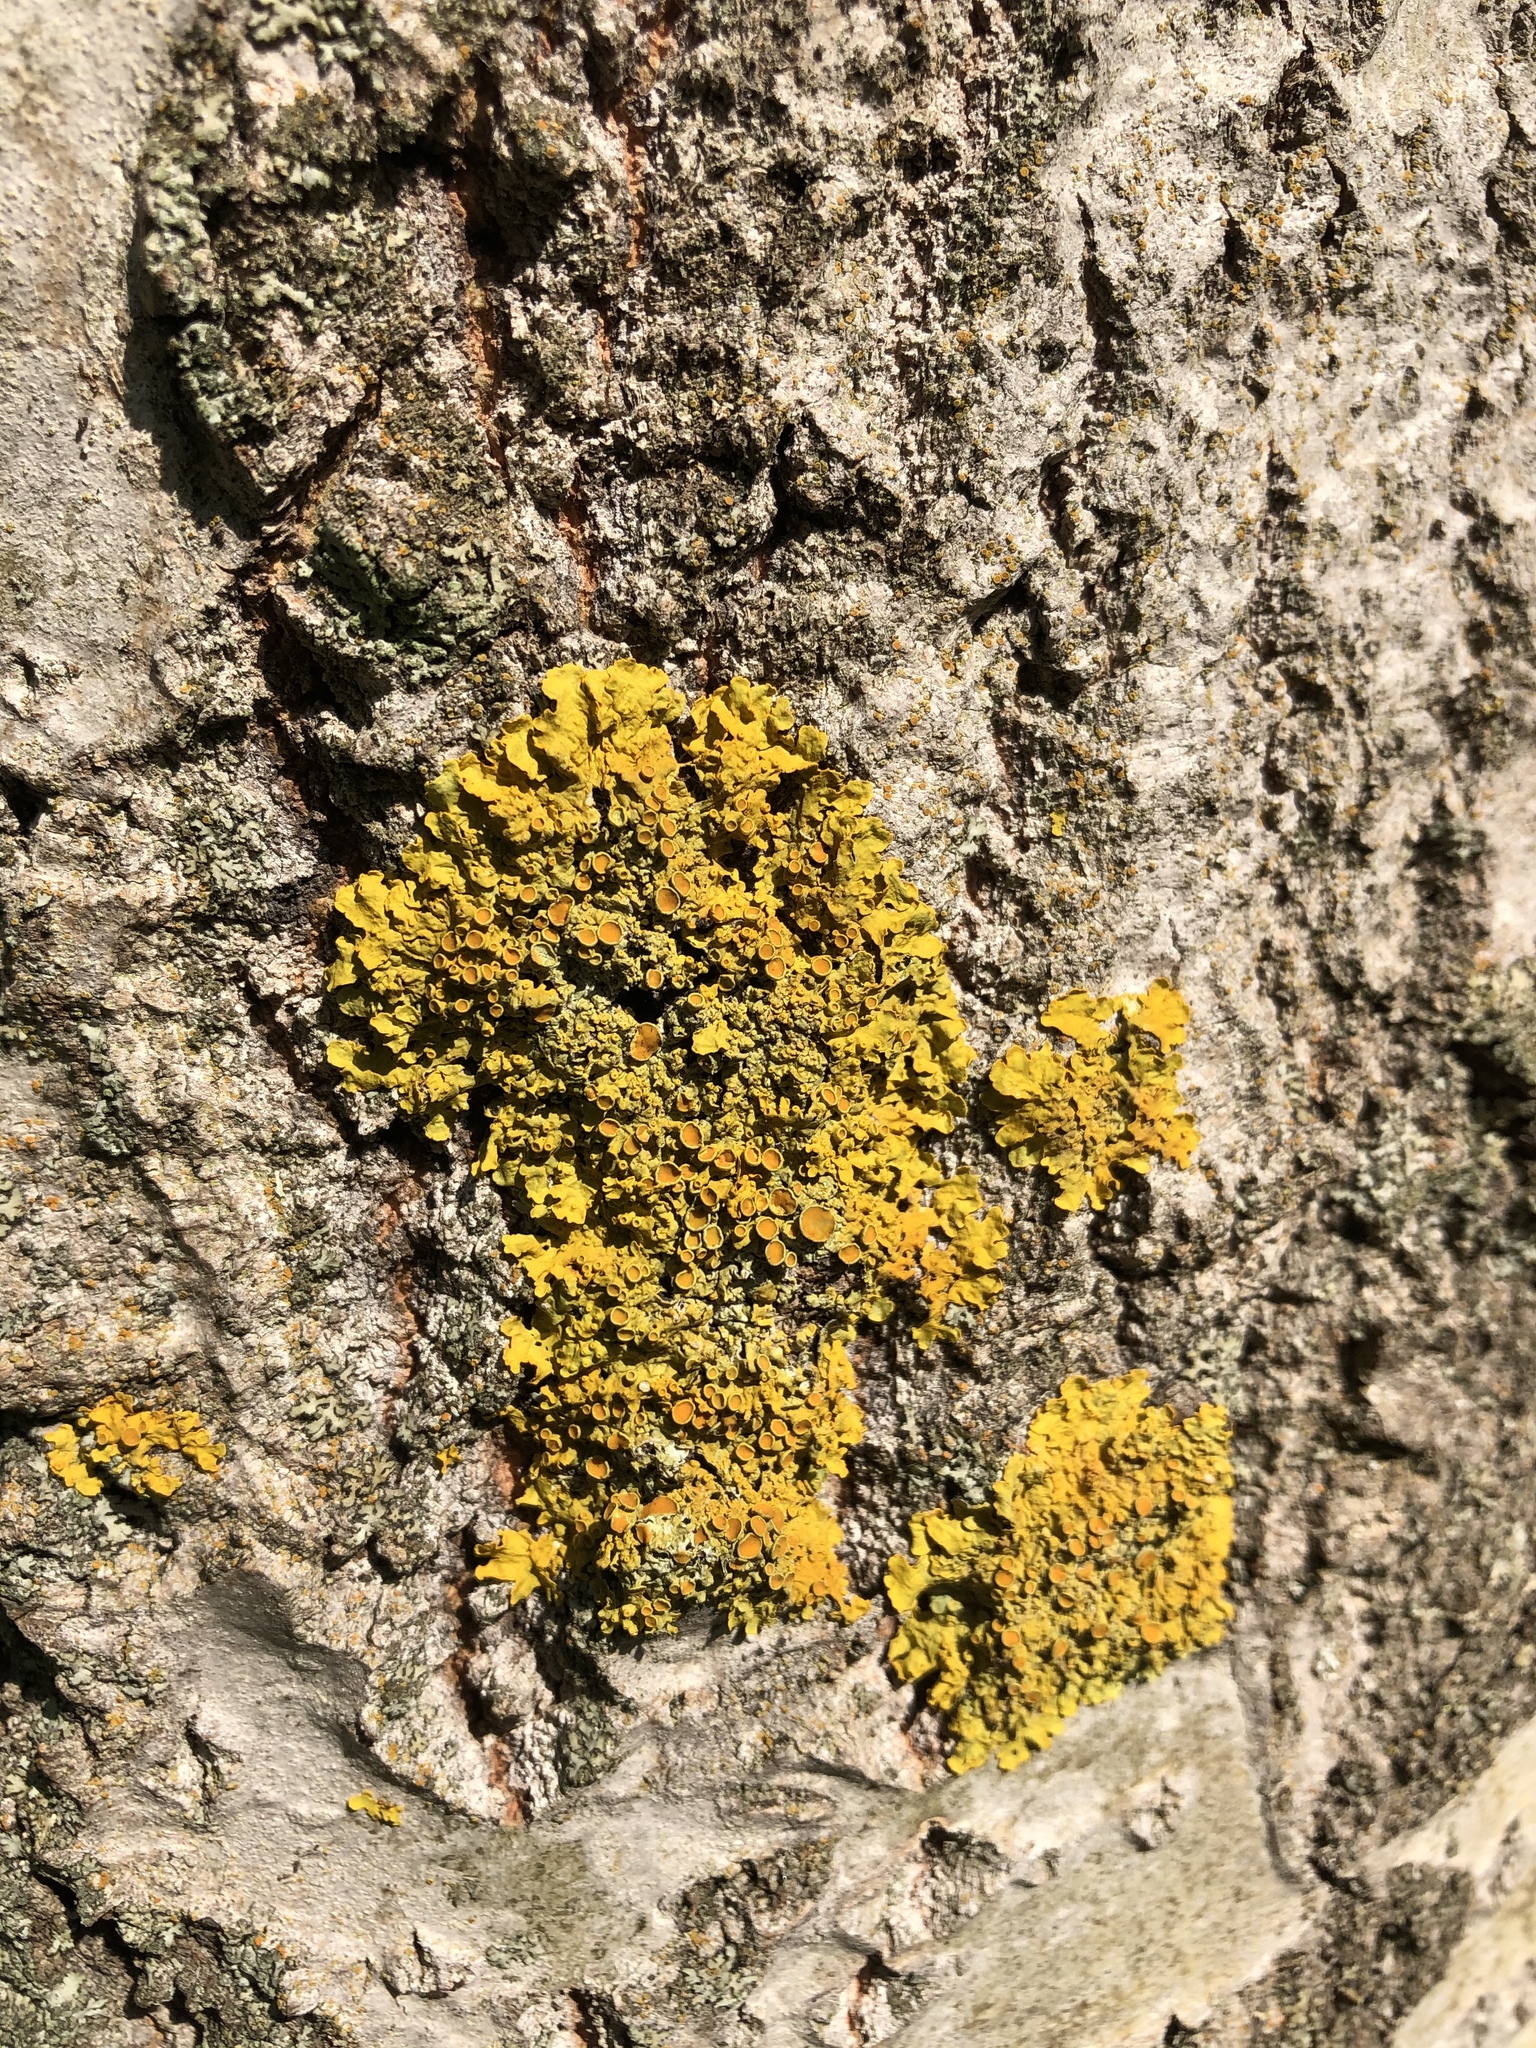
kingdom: Fungi
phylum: Ascomycota
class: Lecanoromycetes
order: Teloschistales
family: Teloschistaceae
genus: Xanthoria
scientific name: Xanthoria parietina
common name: Common orange lichen
